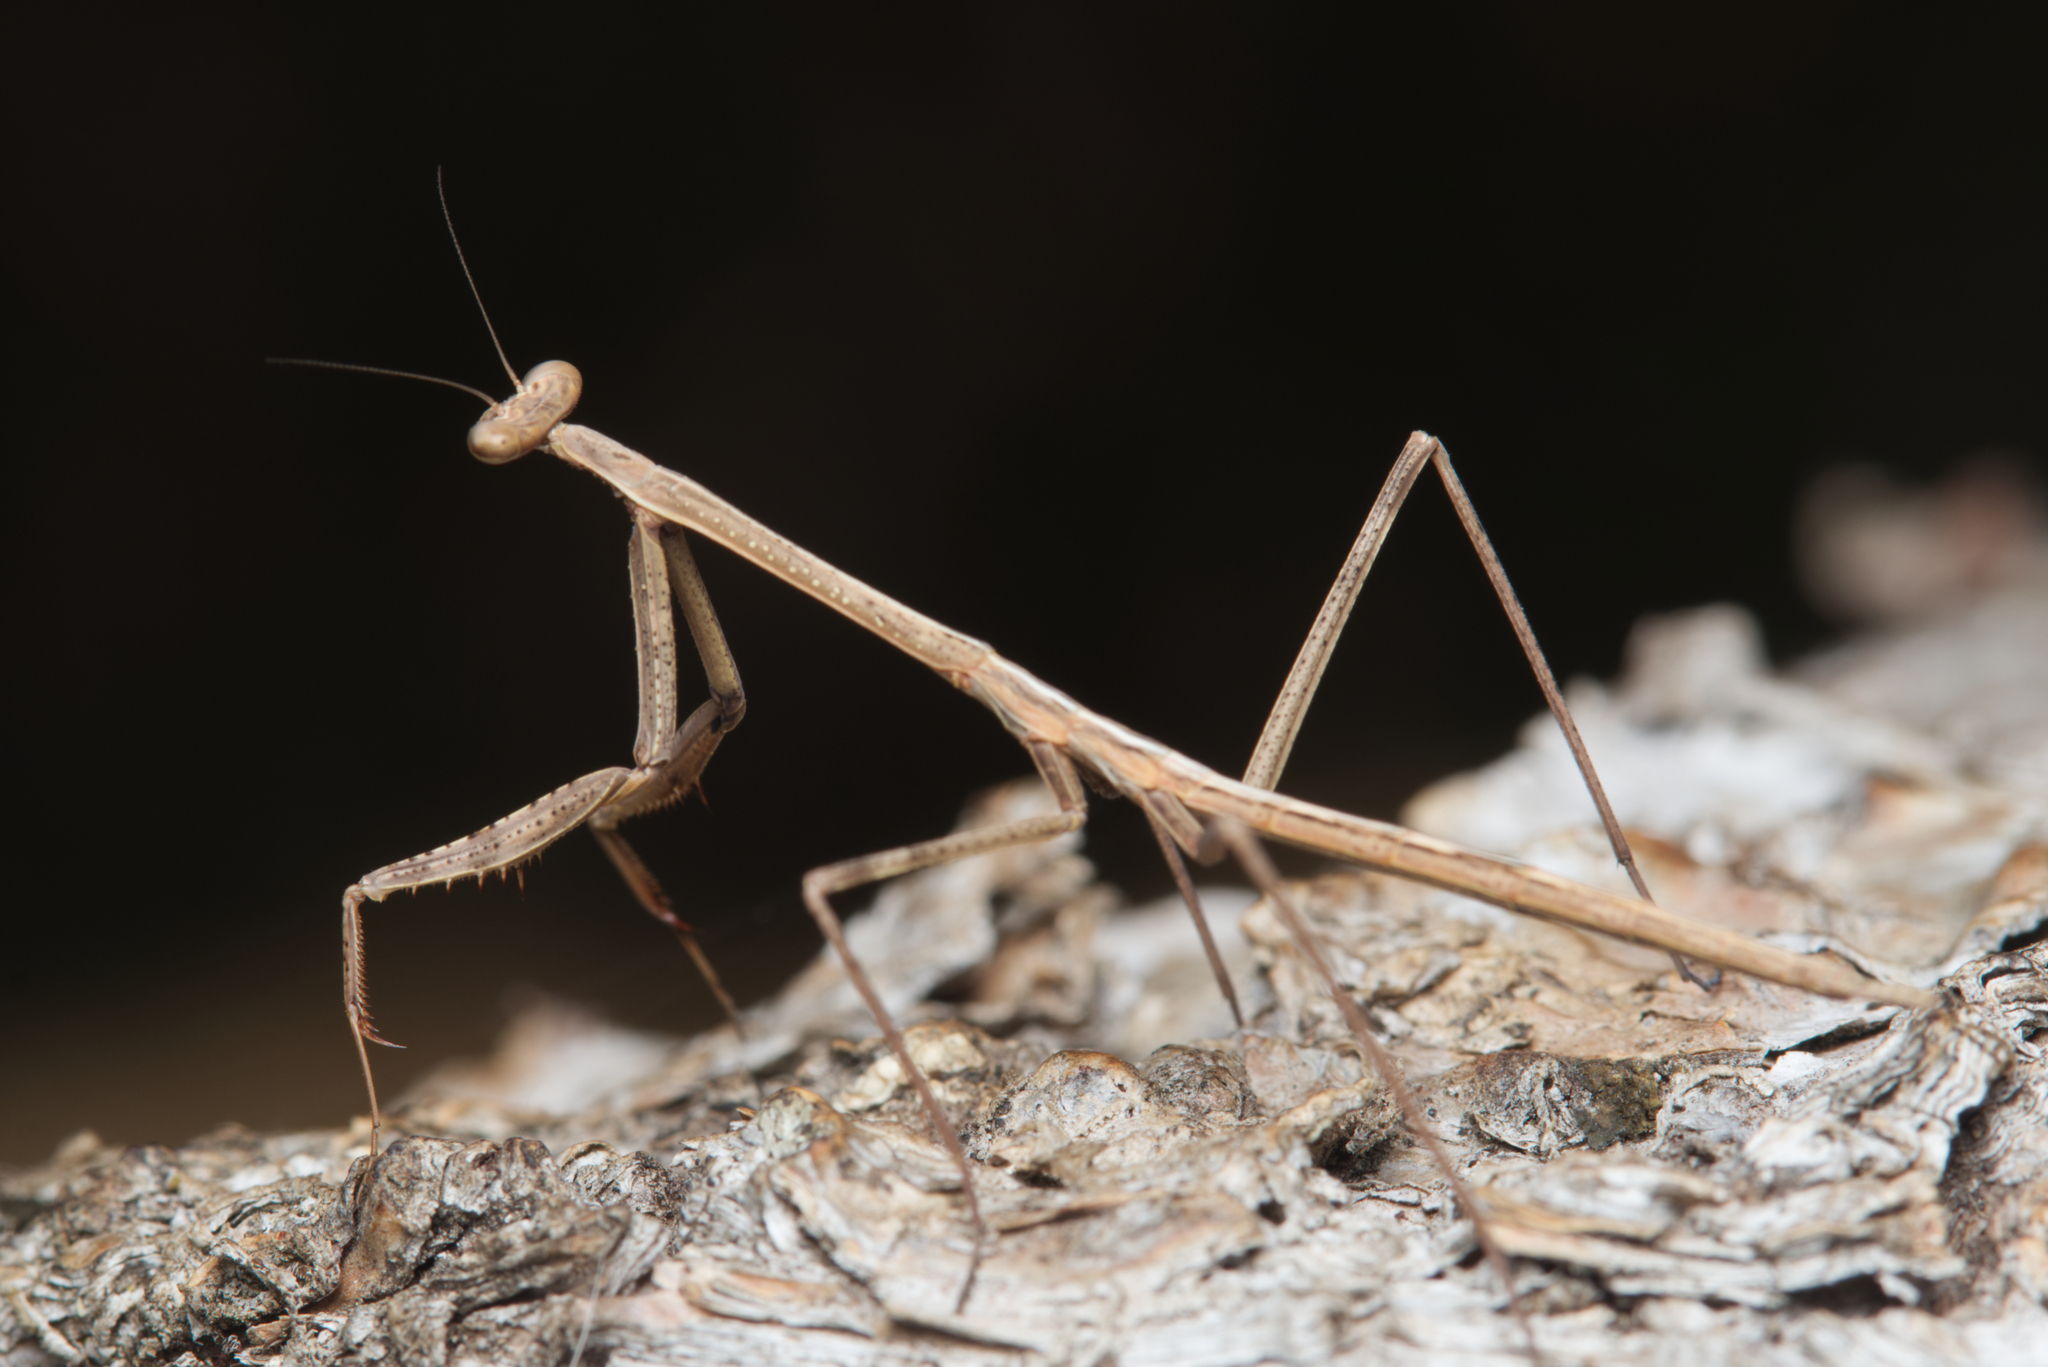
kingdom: Animalia
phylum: Arthropoda
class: Insecta
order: Mantodea
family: Mantidae
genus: Archimantis
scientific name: Archimantis latistyla
